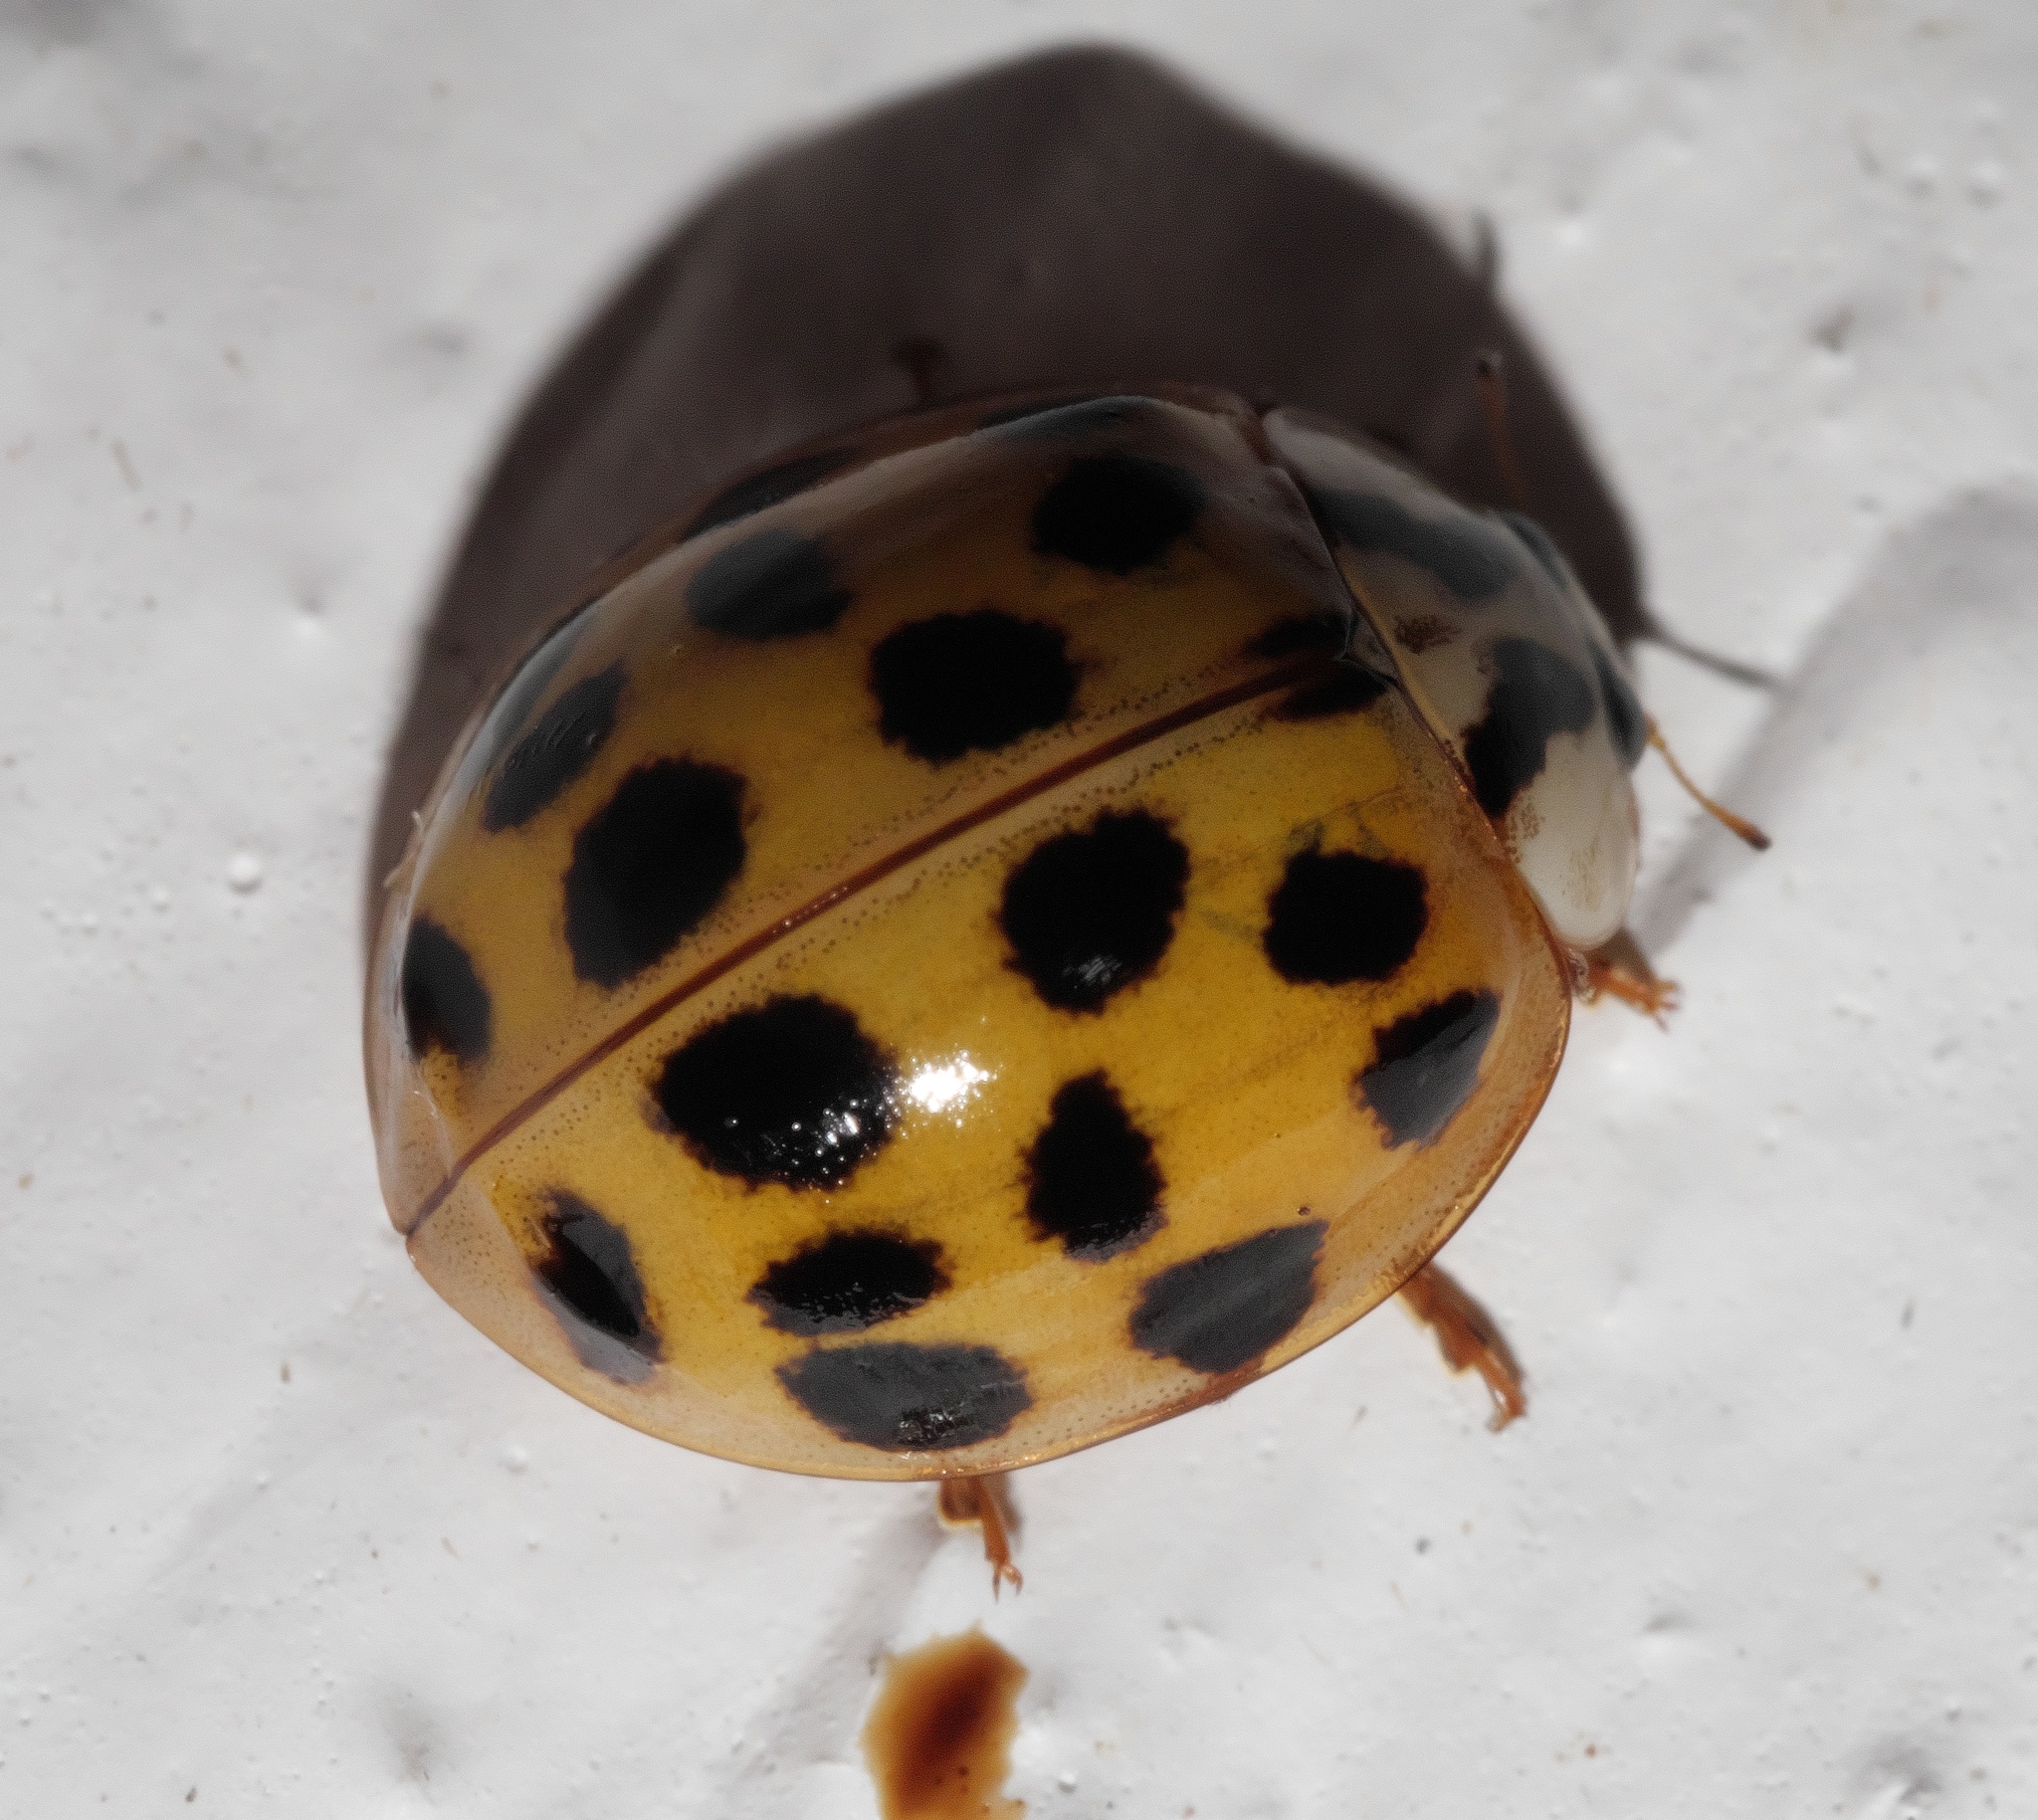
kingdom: Animalia
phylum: Arthropoda
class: Insecta
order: Coleoptera
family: Coccinellidae
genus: Harmonia
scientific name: Harmonia axyridis
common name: Harlequin ladybird
